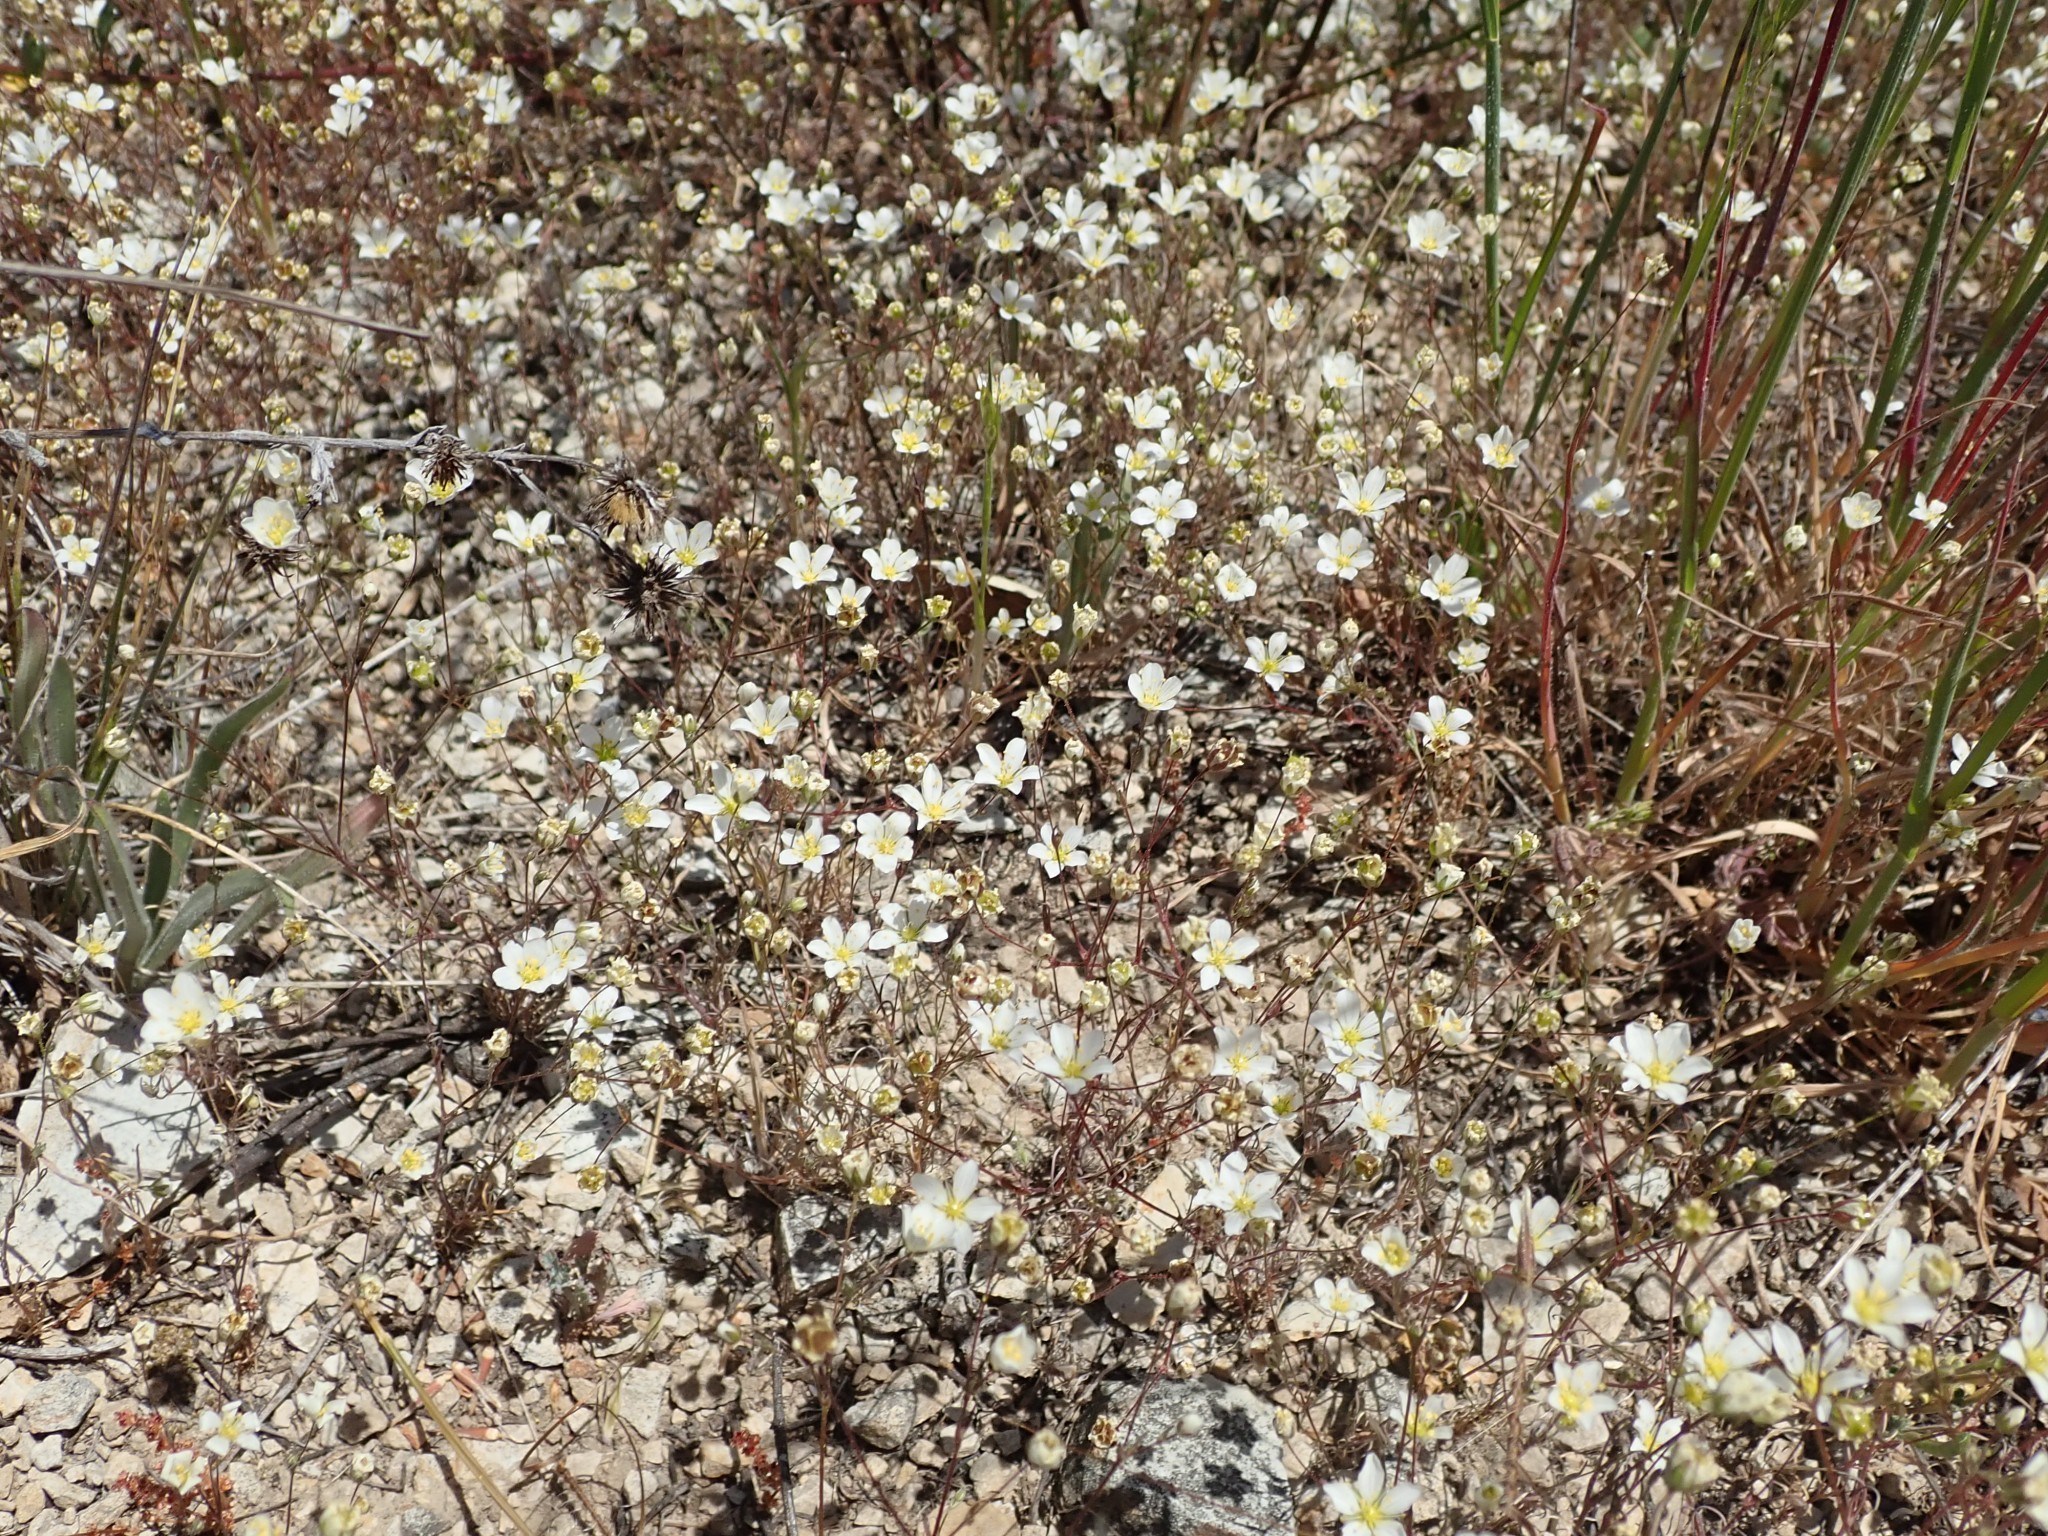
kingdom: Plantae
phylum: Tracheophyta
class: Magnoliopsida
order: Caryophyllales
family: Caryophyllaceae
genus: Sabulina
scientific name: Sabulina douglasii
